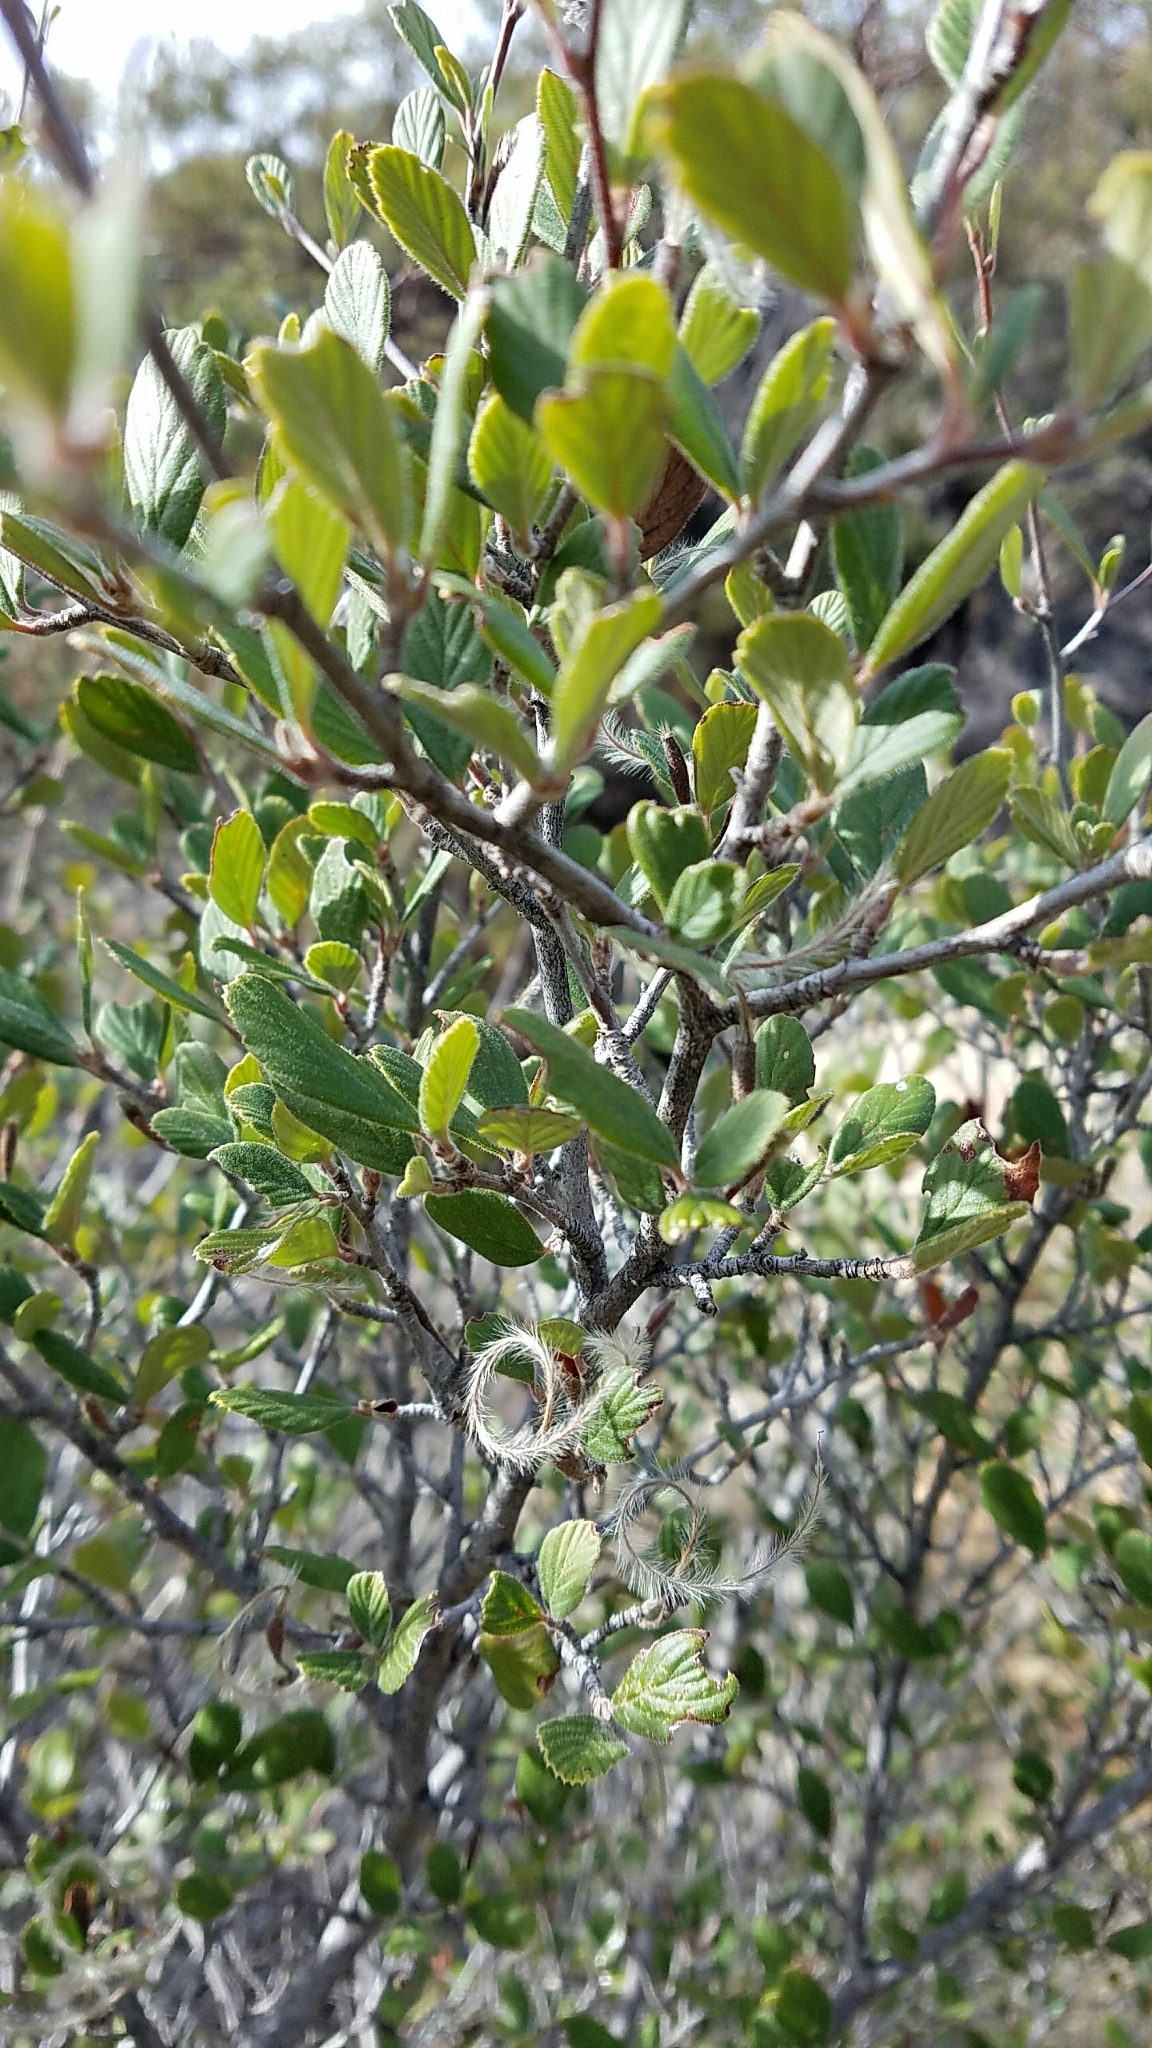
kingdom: Plantae
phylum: Tracheophyta
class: Magnoliopsida
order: Rosales
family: Rosaceae
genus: Cercocarpus
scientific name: Cercocarpus betuloides
